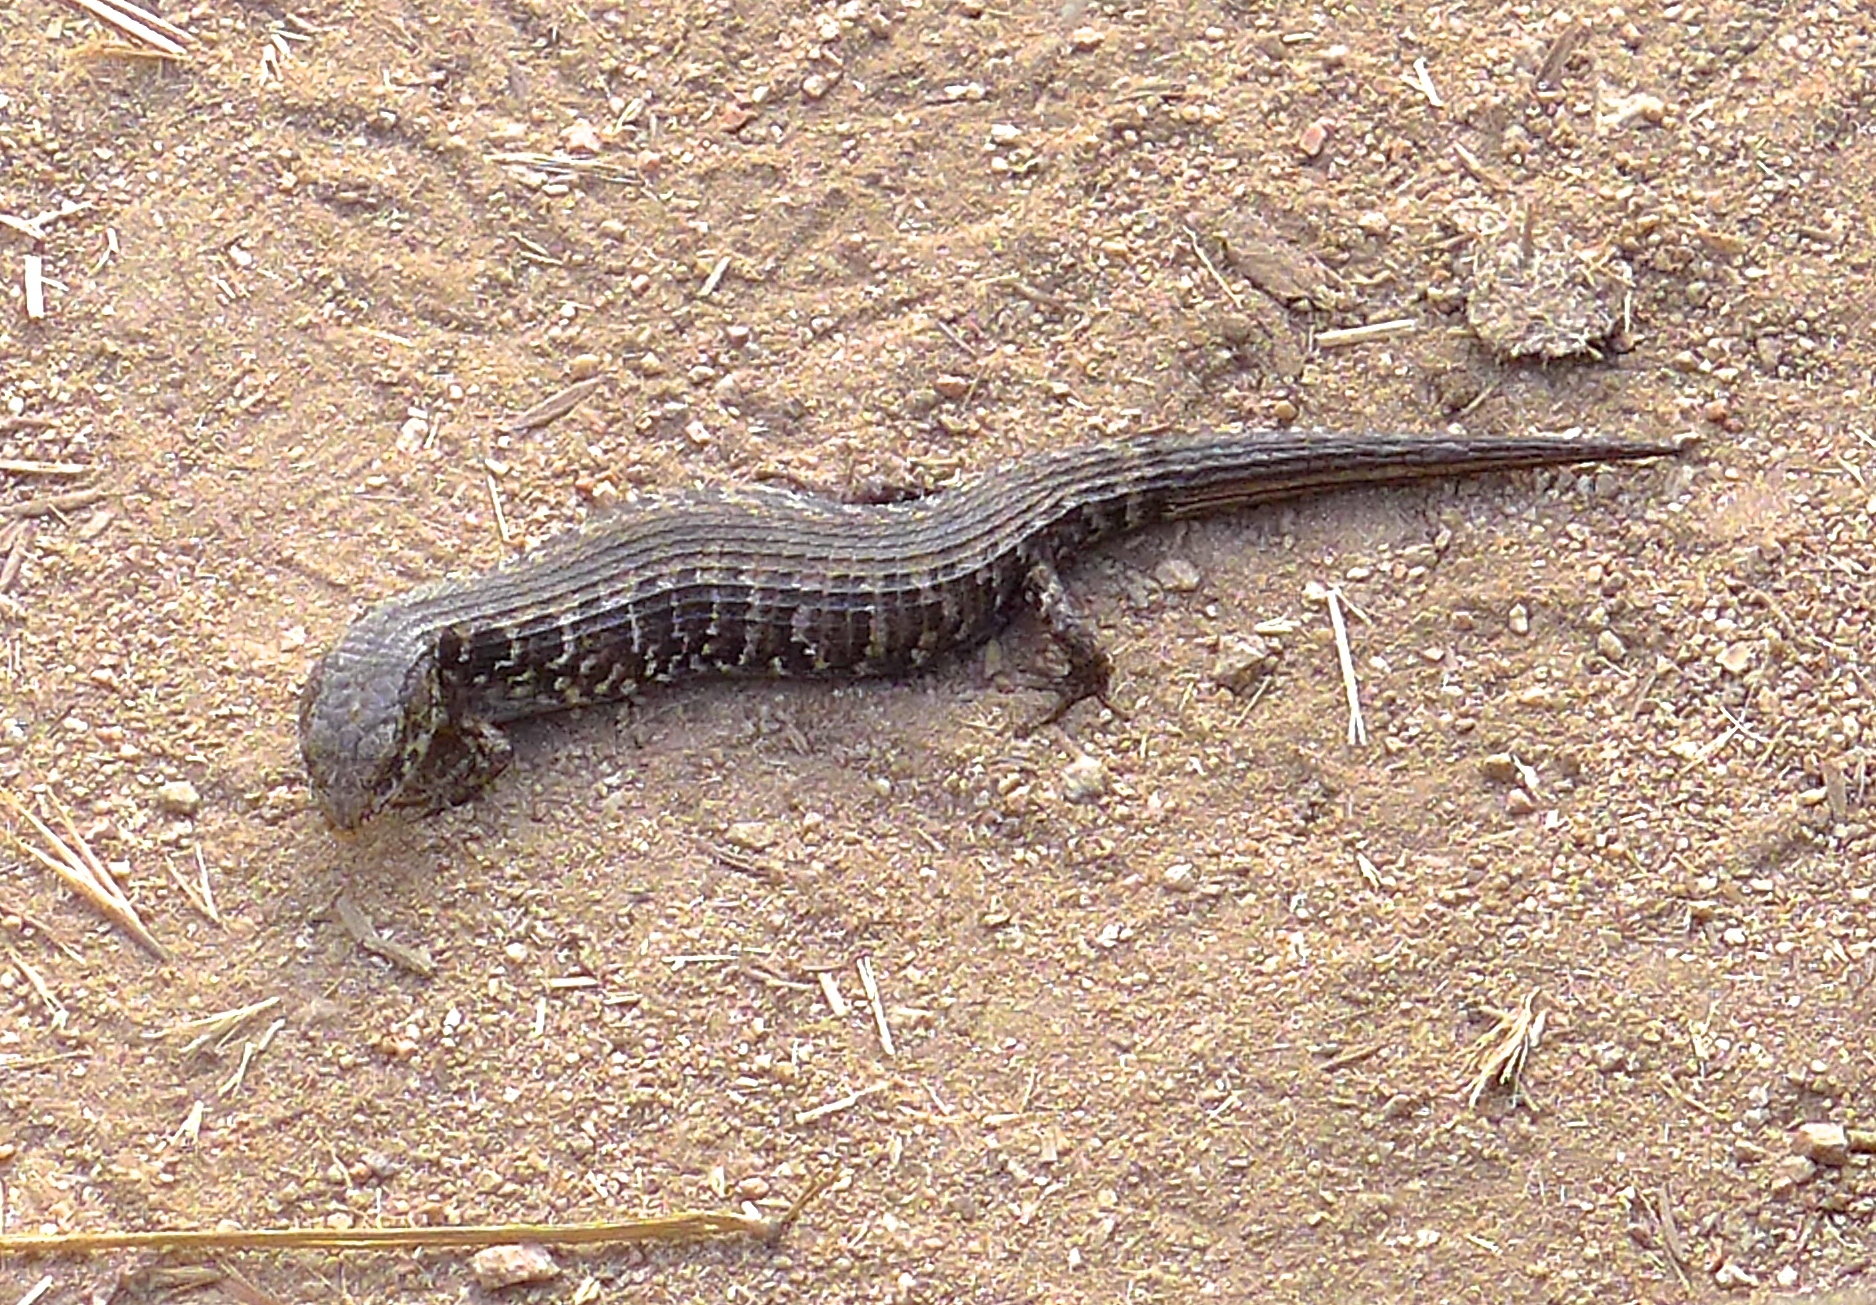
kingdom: Animalia
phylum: Chordata
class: Squamata
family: Anguidae
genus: Elgaria
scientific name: Elgaria coerulea
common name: Northern alligator lizard
